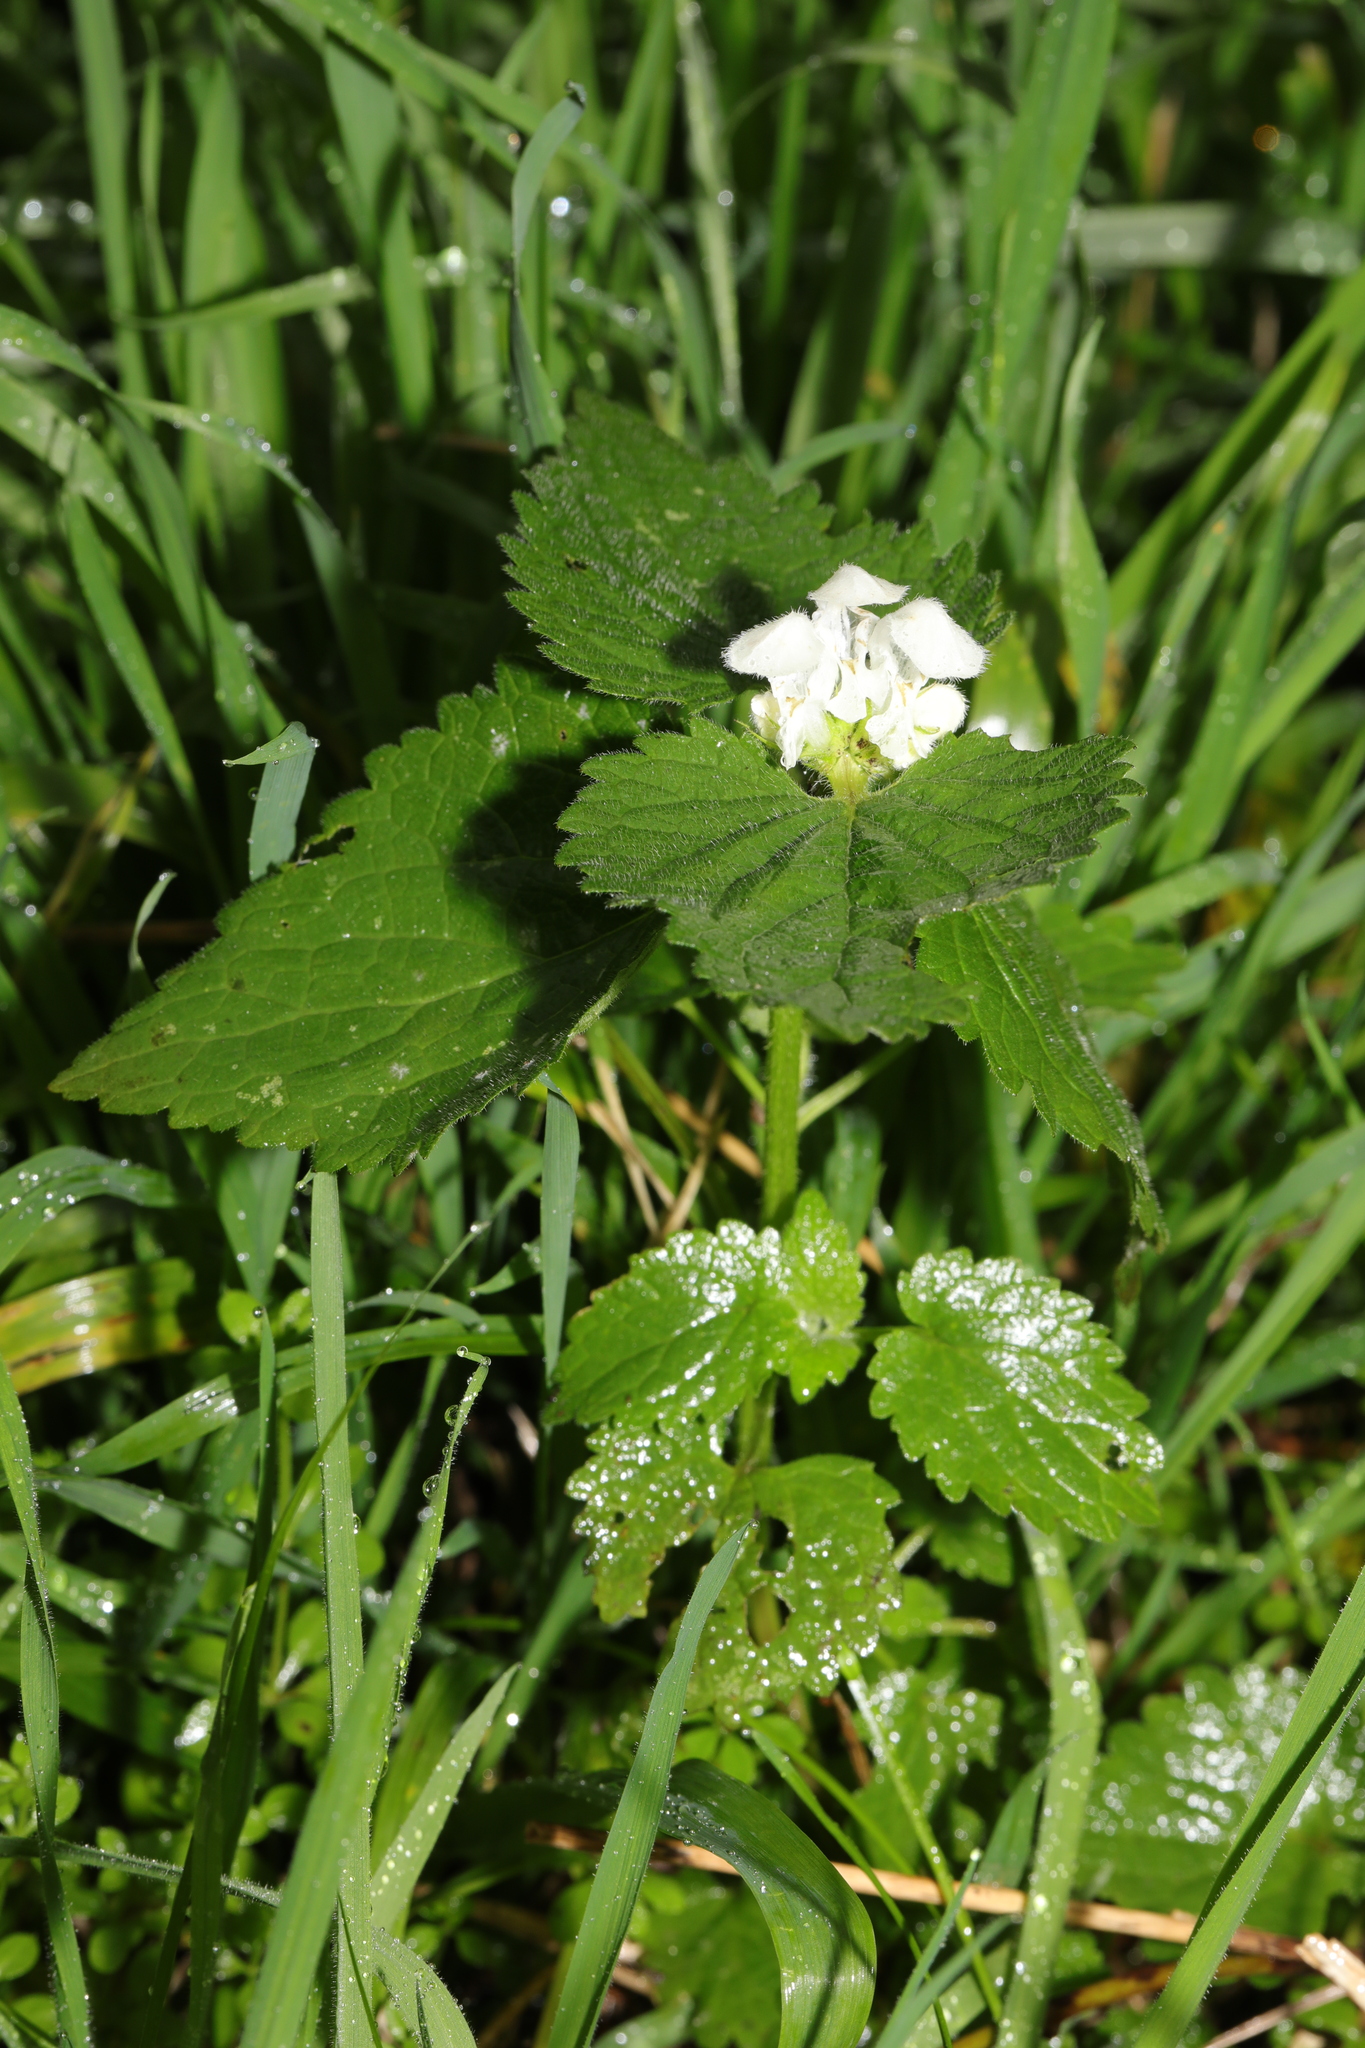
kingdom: Plantae
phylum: Tracheophyta
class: Magnoliopsida
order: Lamiales
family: Lamiaceae
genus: Lamium
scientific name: Lamium album
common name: White dead-nettle
